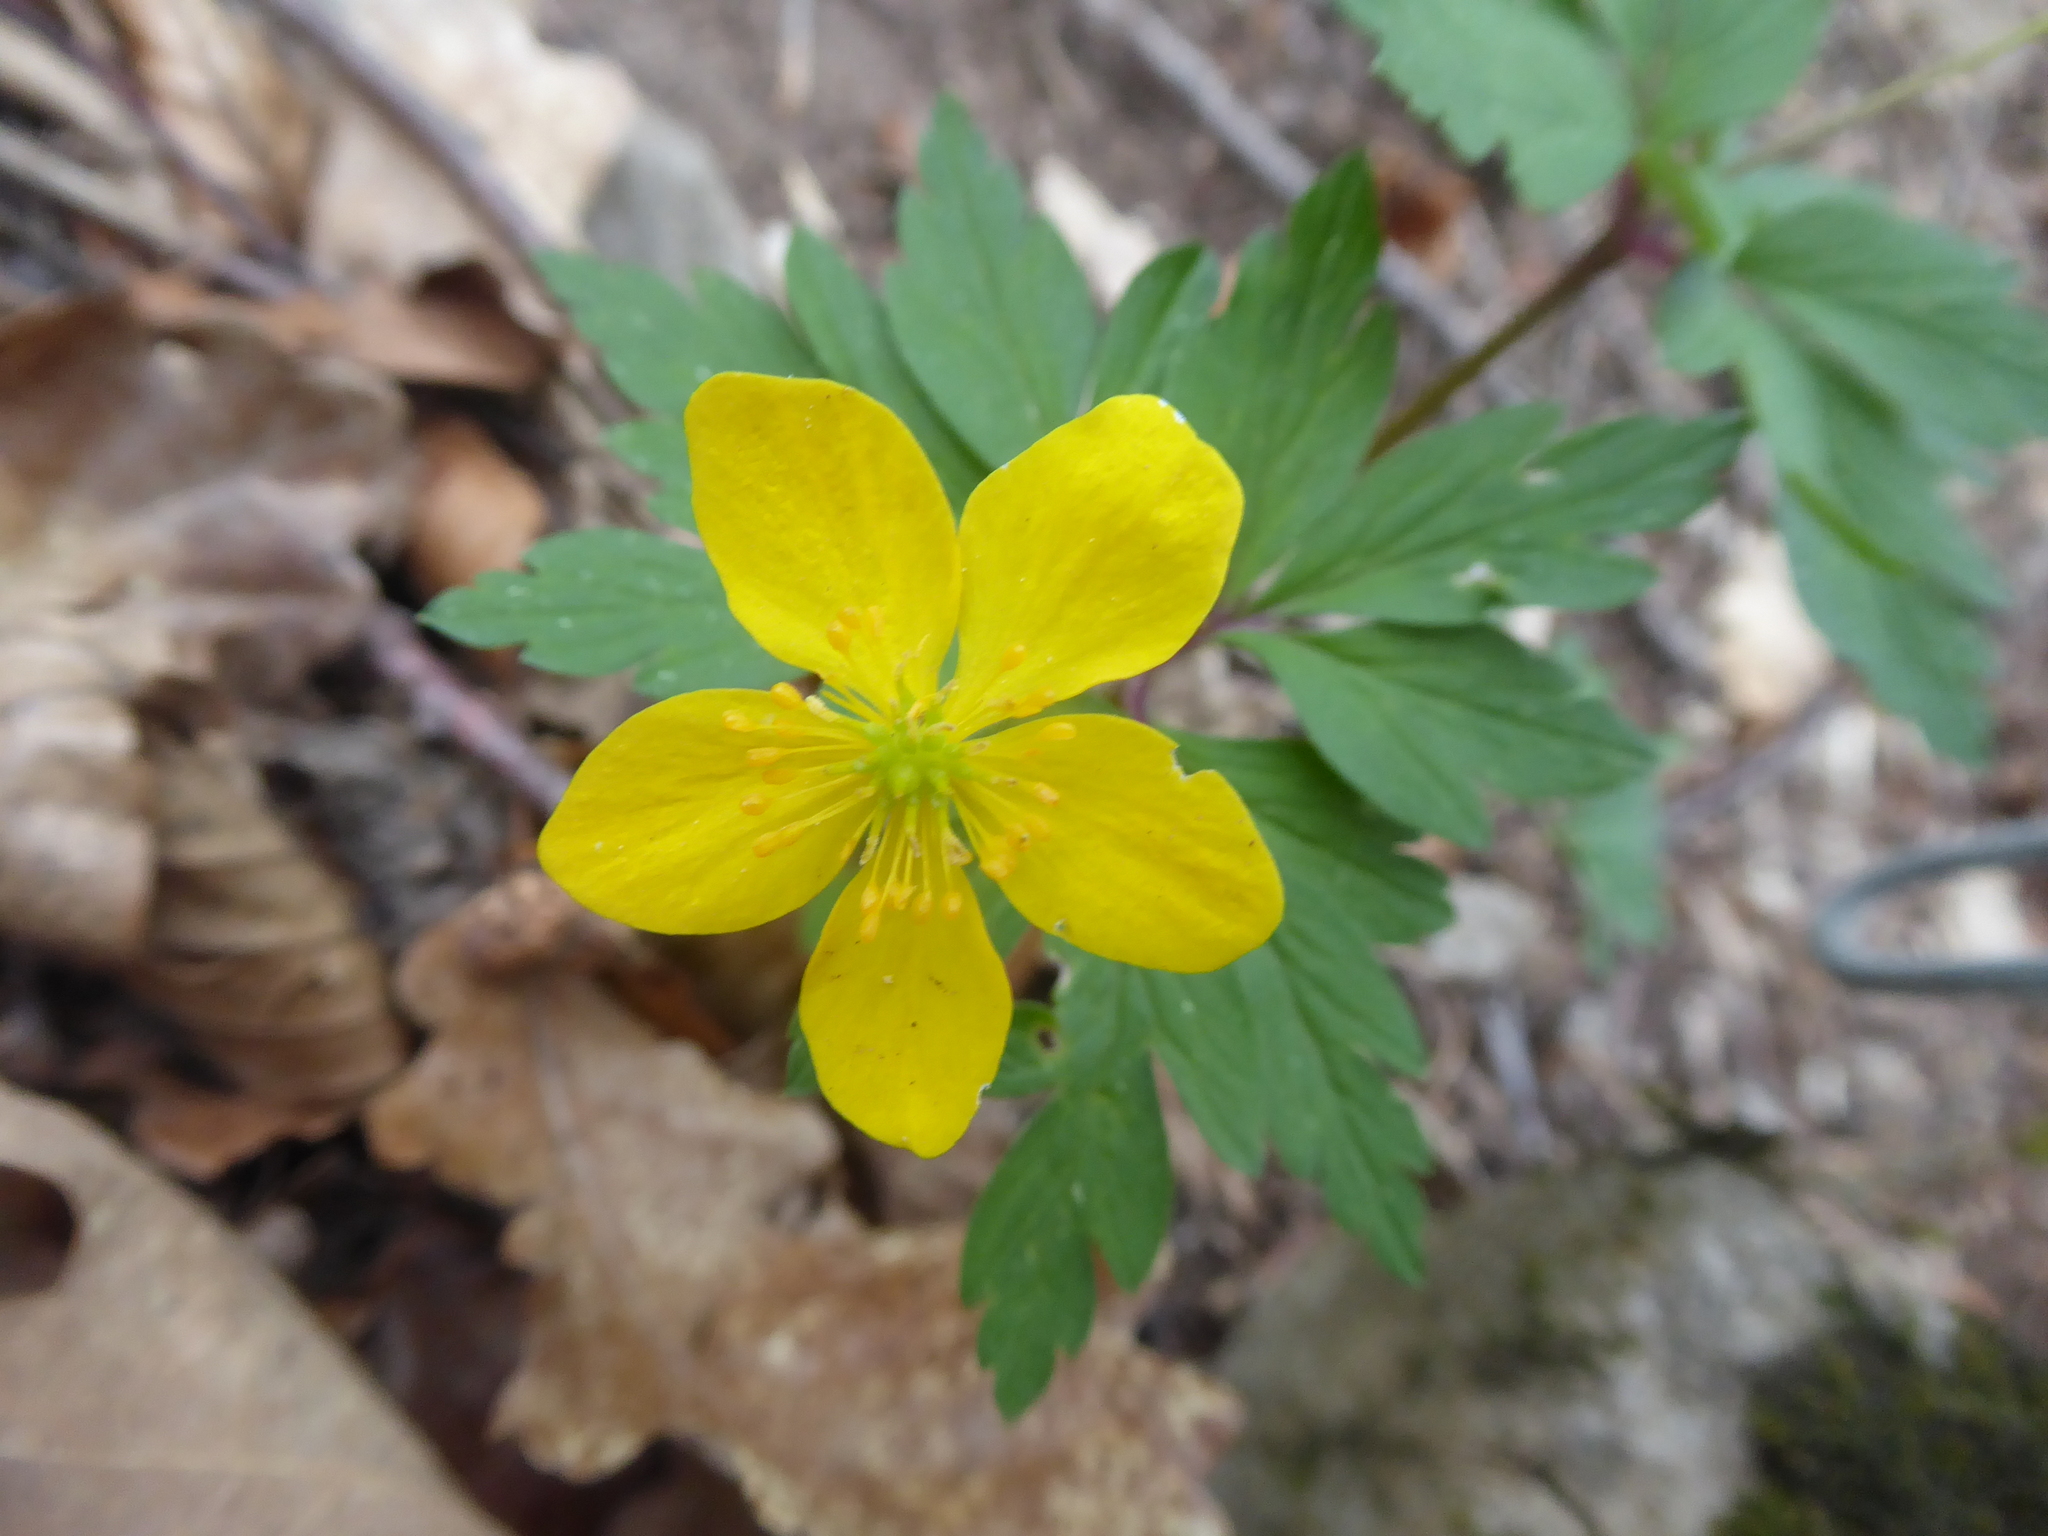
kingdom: Plantae
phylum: Tracheophyta
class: Magnoliopsida
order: Ranunculales
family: Ranunculaceae
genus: Anemone
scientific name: Anemone ranunculoides
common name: Yellow anemone
